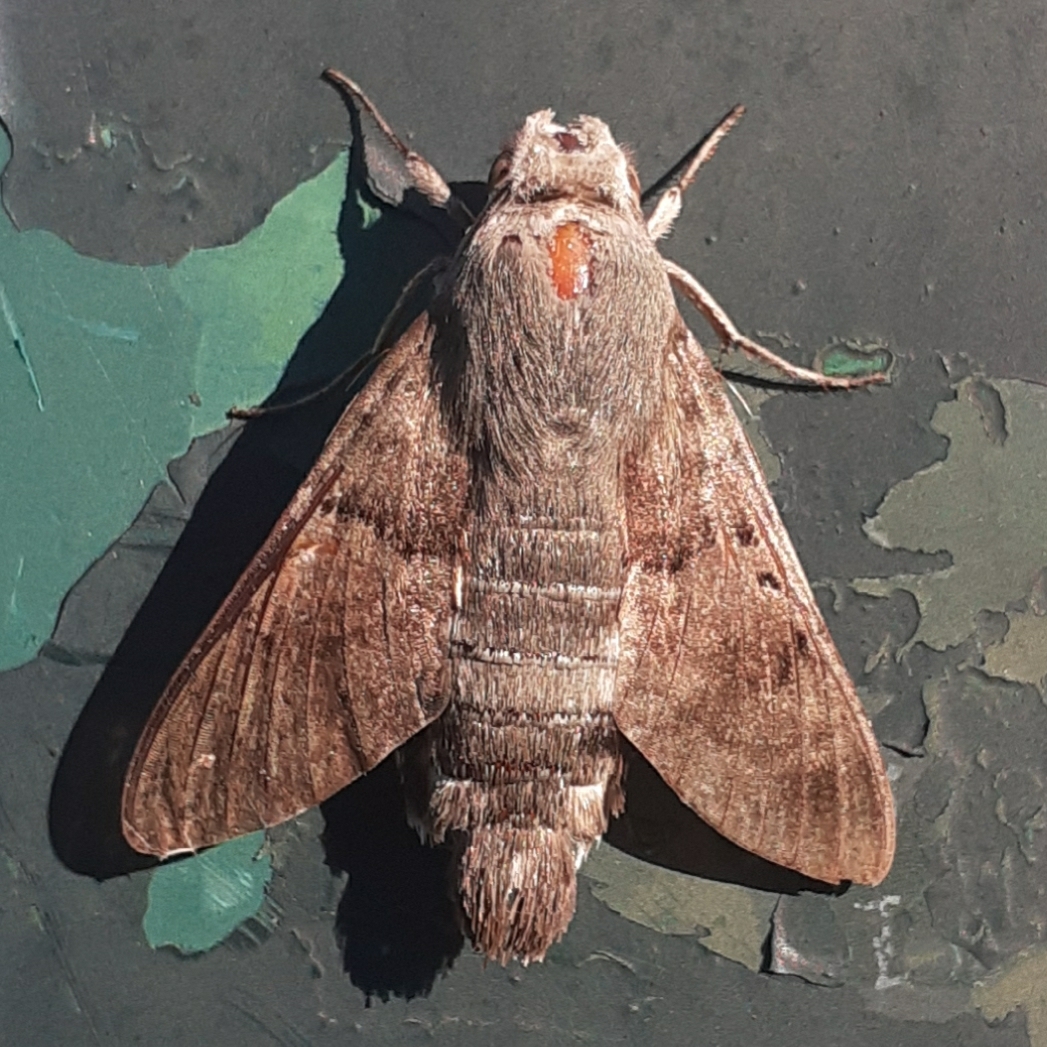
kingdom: Animalia
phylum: Arthropoda
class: Insecta
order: Lepidoptera
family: Sphingidae
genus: Macroglossum
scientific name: Macroglossum stellatarum
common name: Humming-bird hawk-moth
